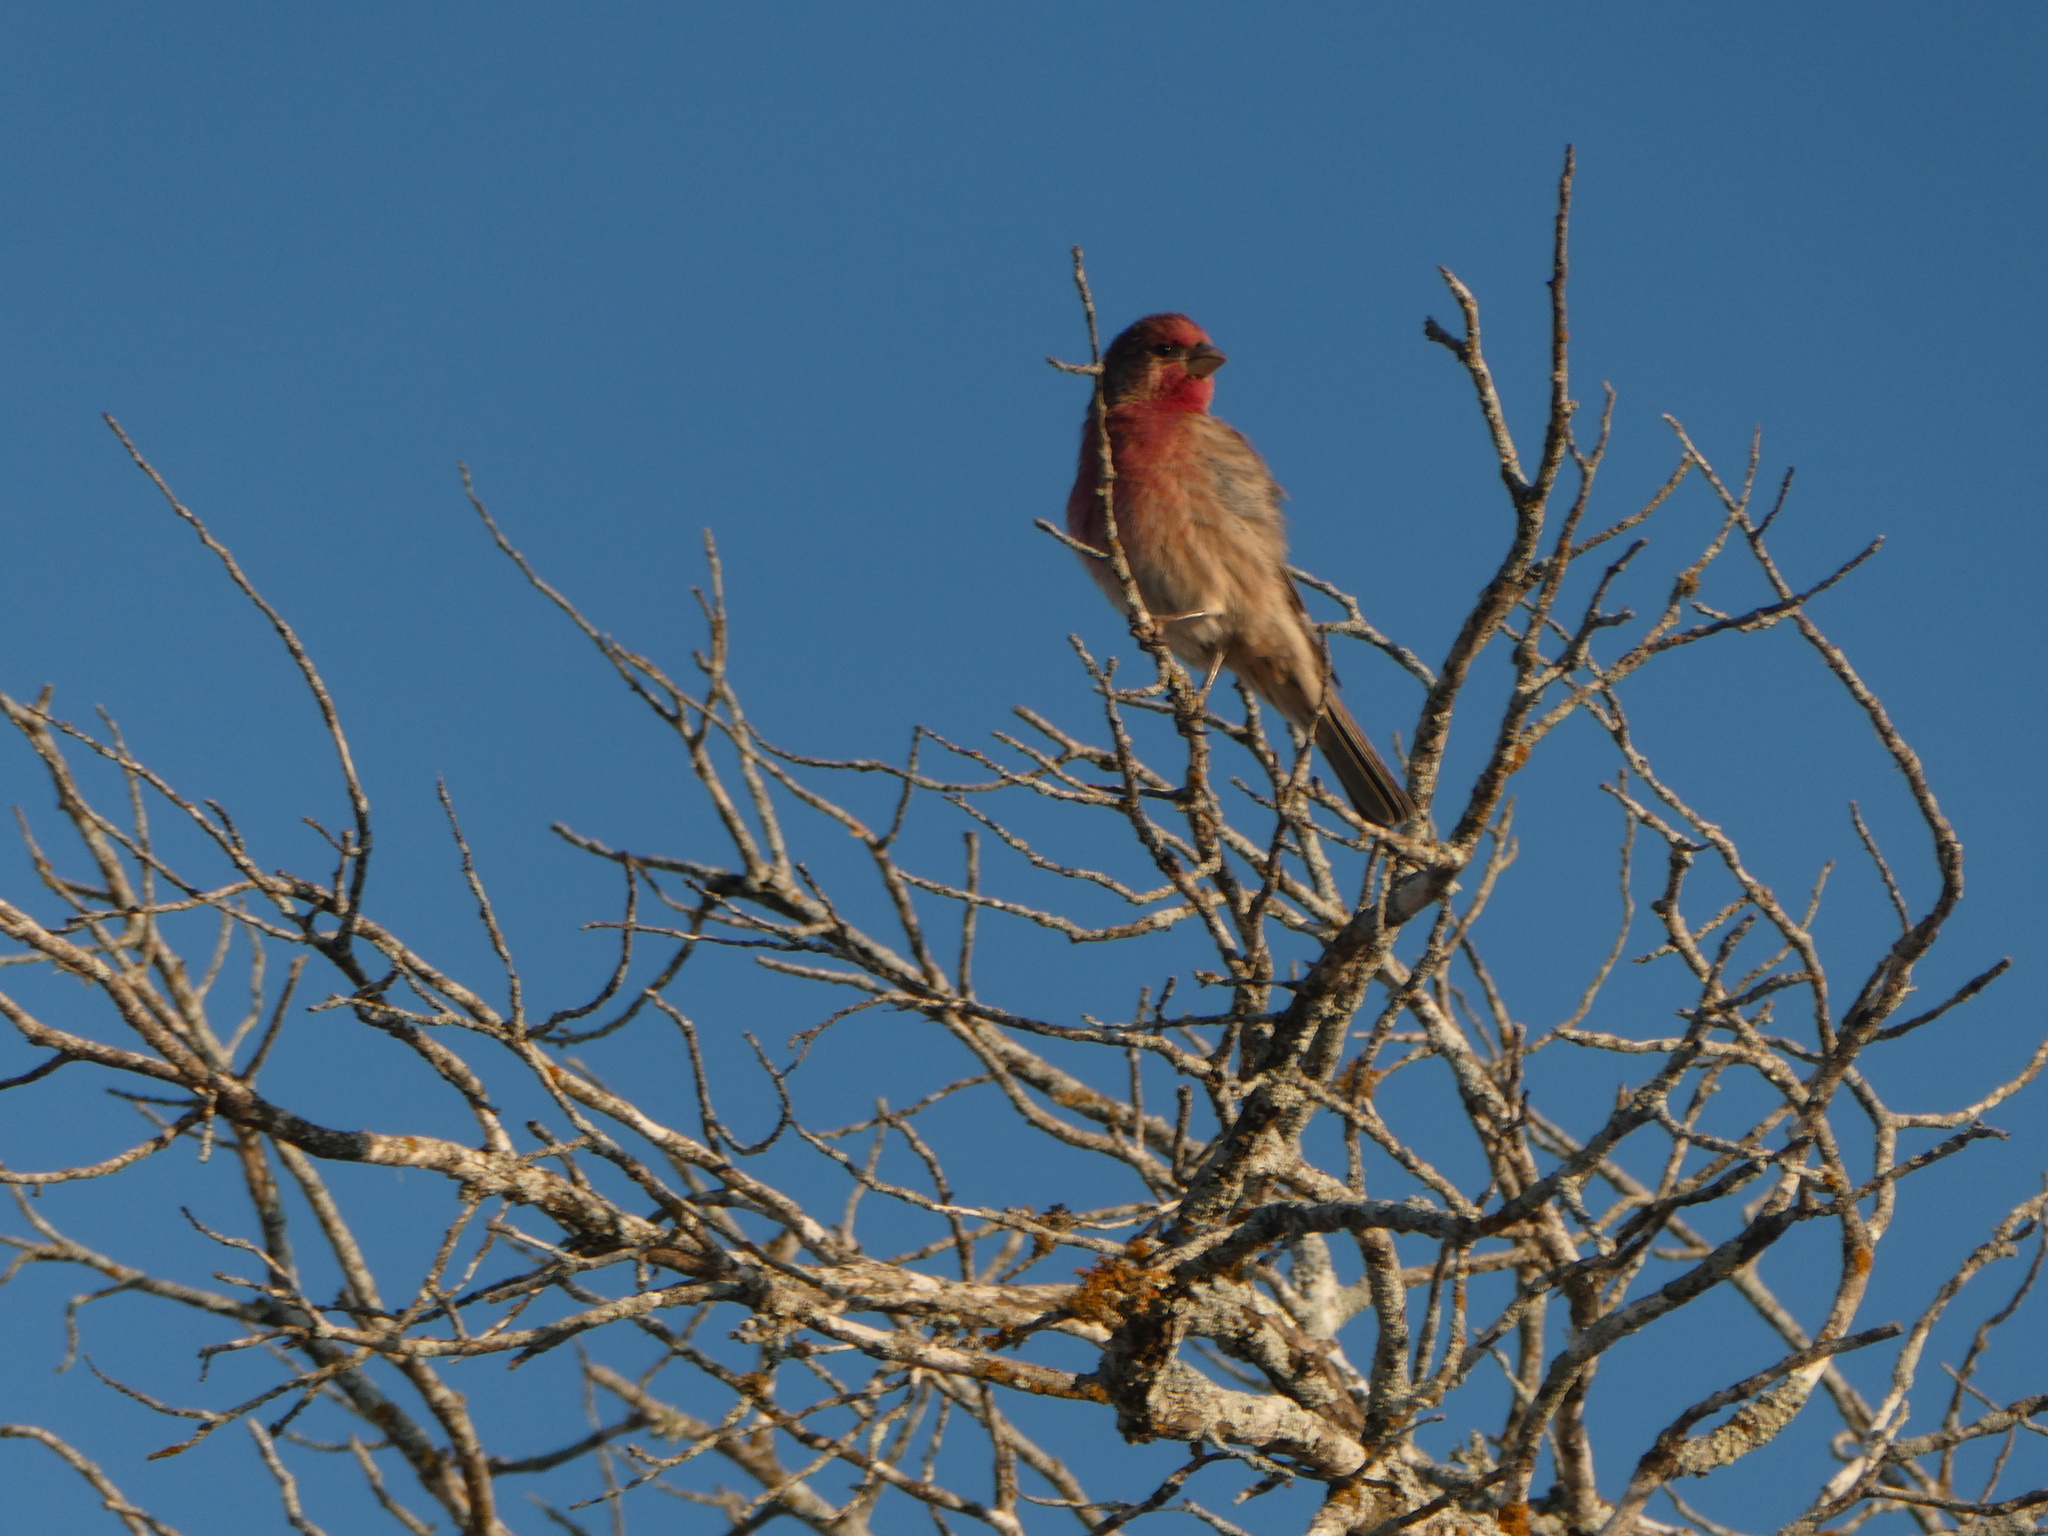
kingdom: Animalia
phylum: Chordata
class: Aves
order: Passeriformes
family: Fringillidae
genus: Haemorhous
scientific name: Haemorhous mexicanus
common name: House finch
